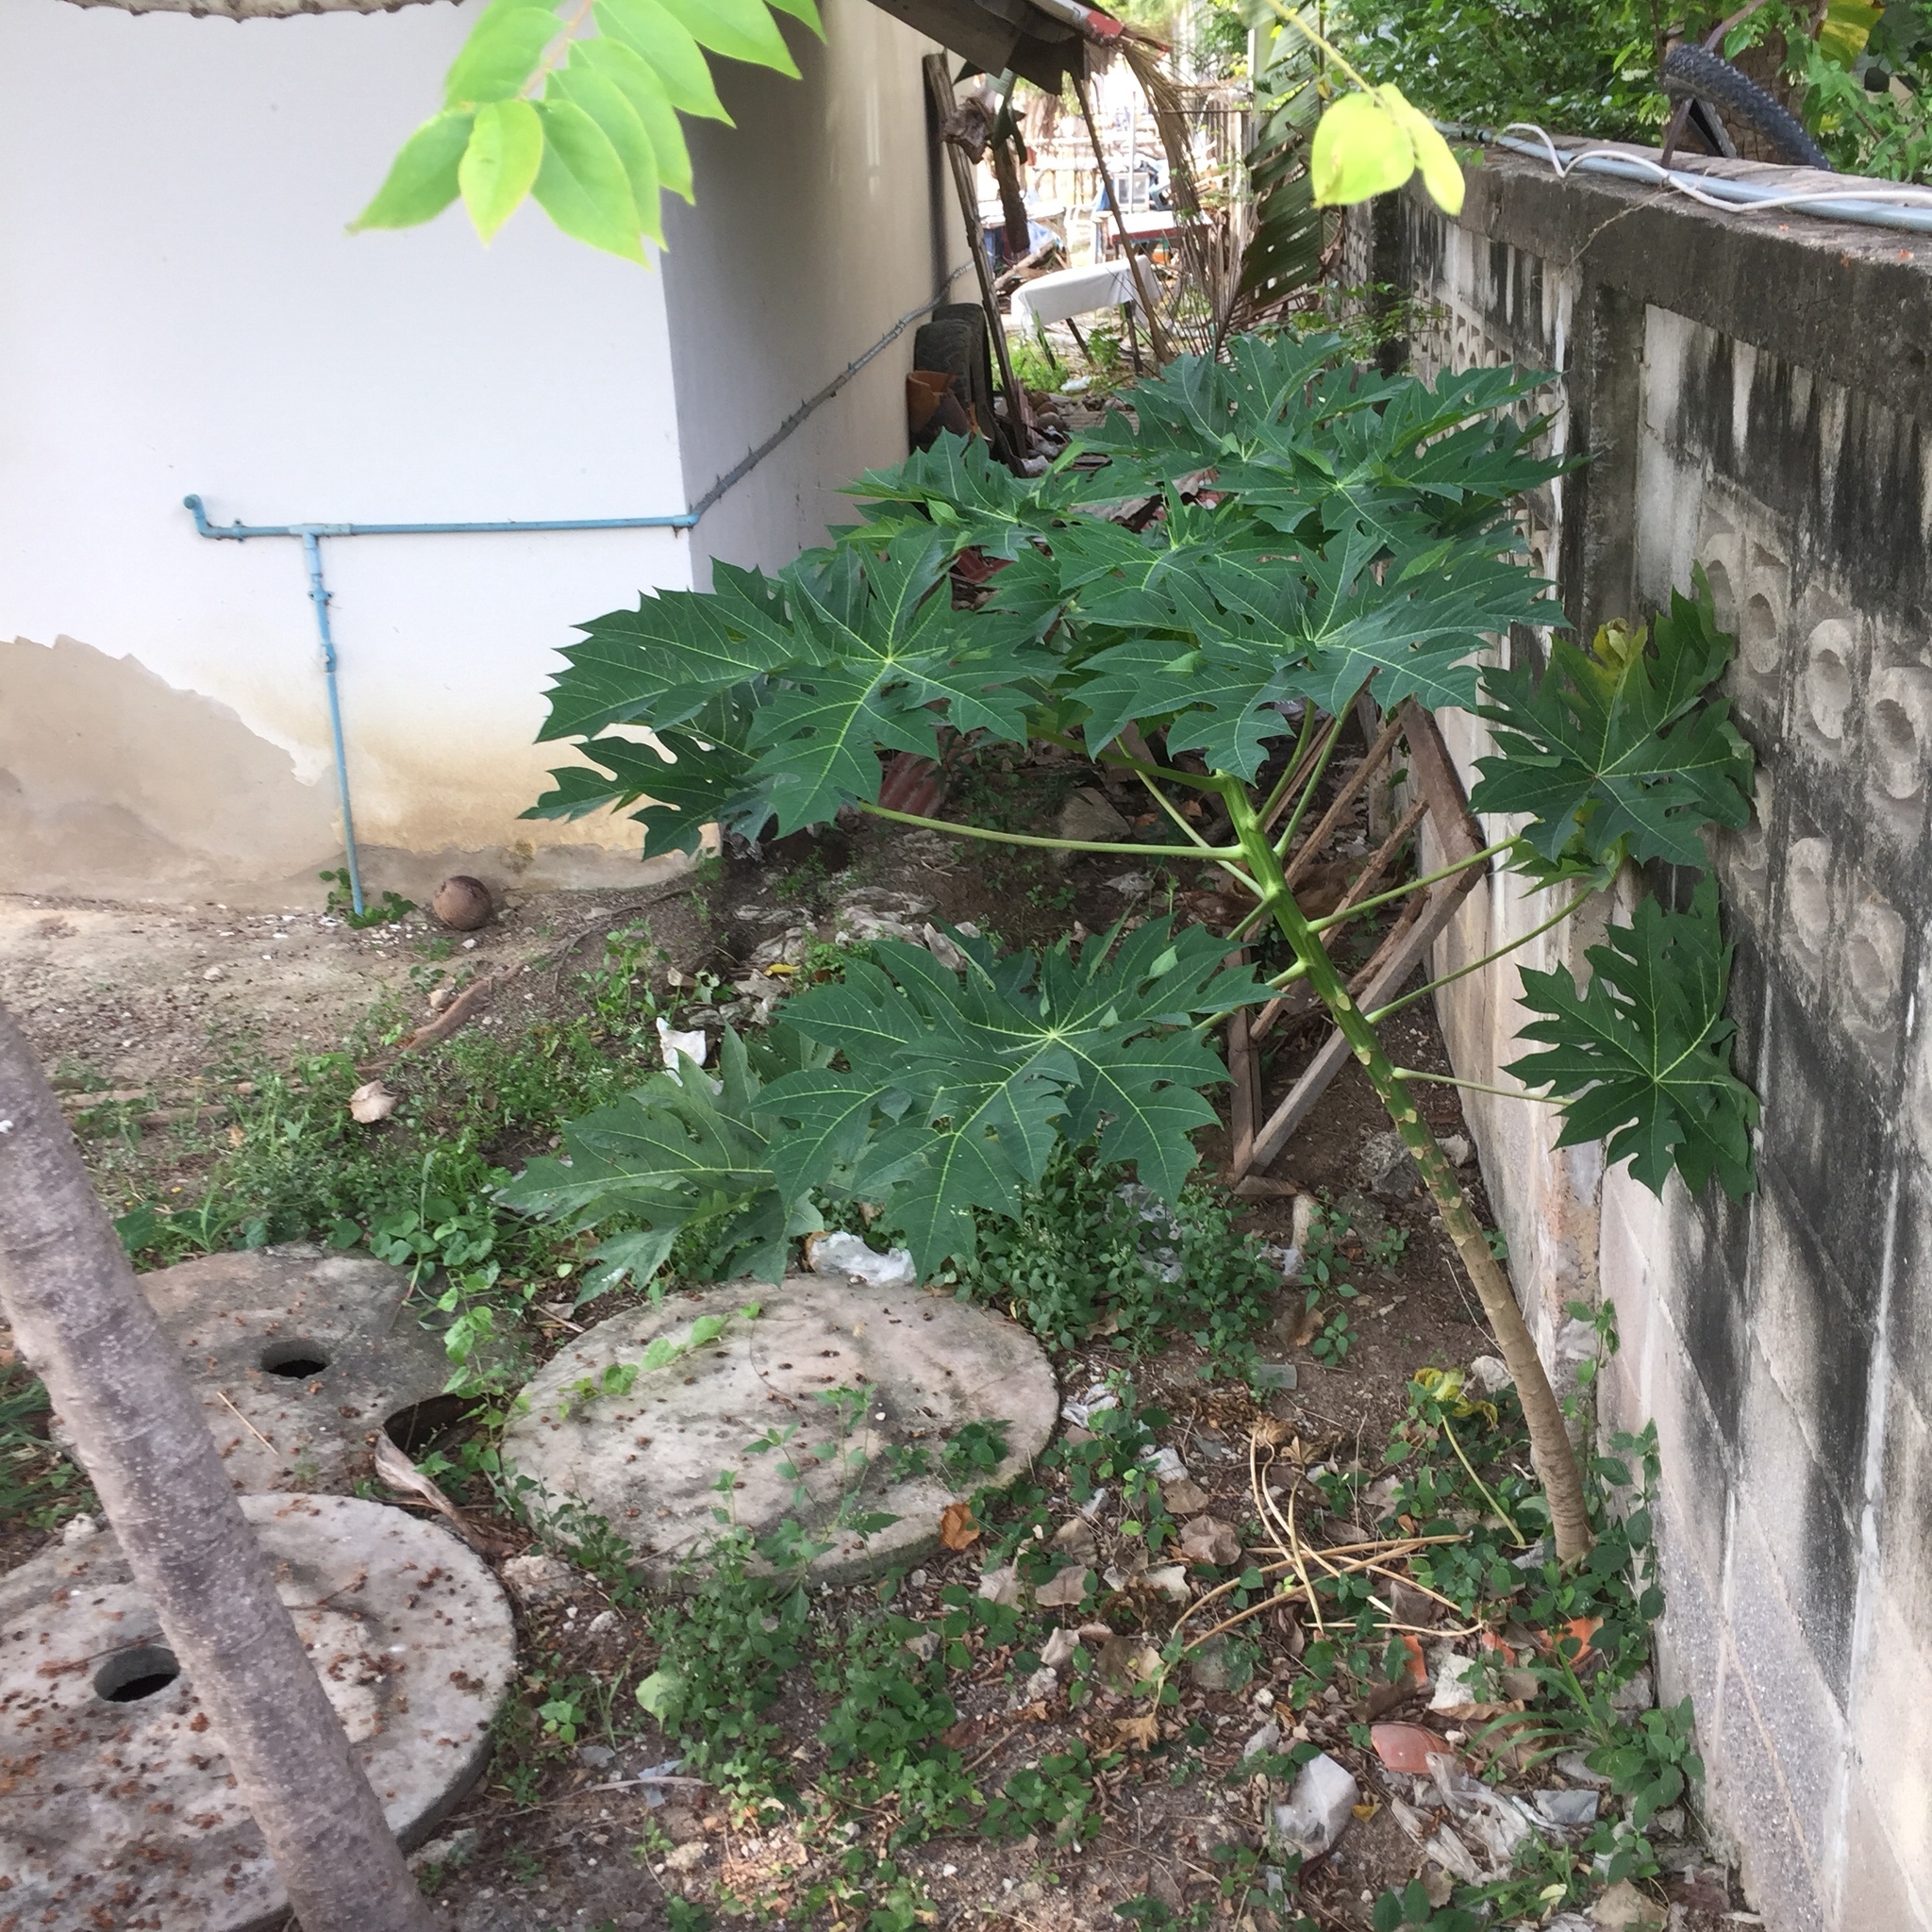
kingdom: Plantae
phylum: Tracheophyta
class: Magnoliopsida
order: Brassicales
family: Caricaceae
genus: Carica
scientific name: Carica papaya
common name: Papaya
